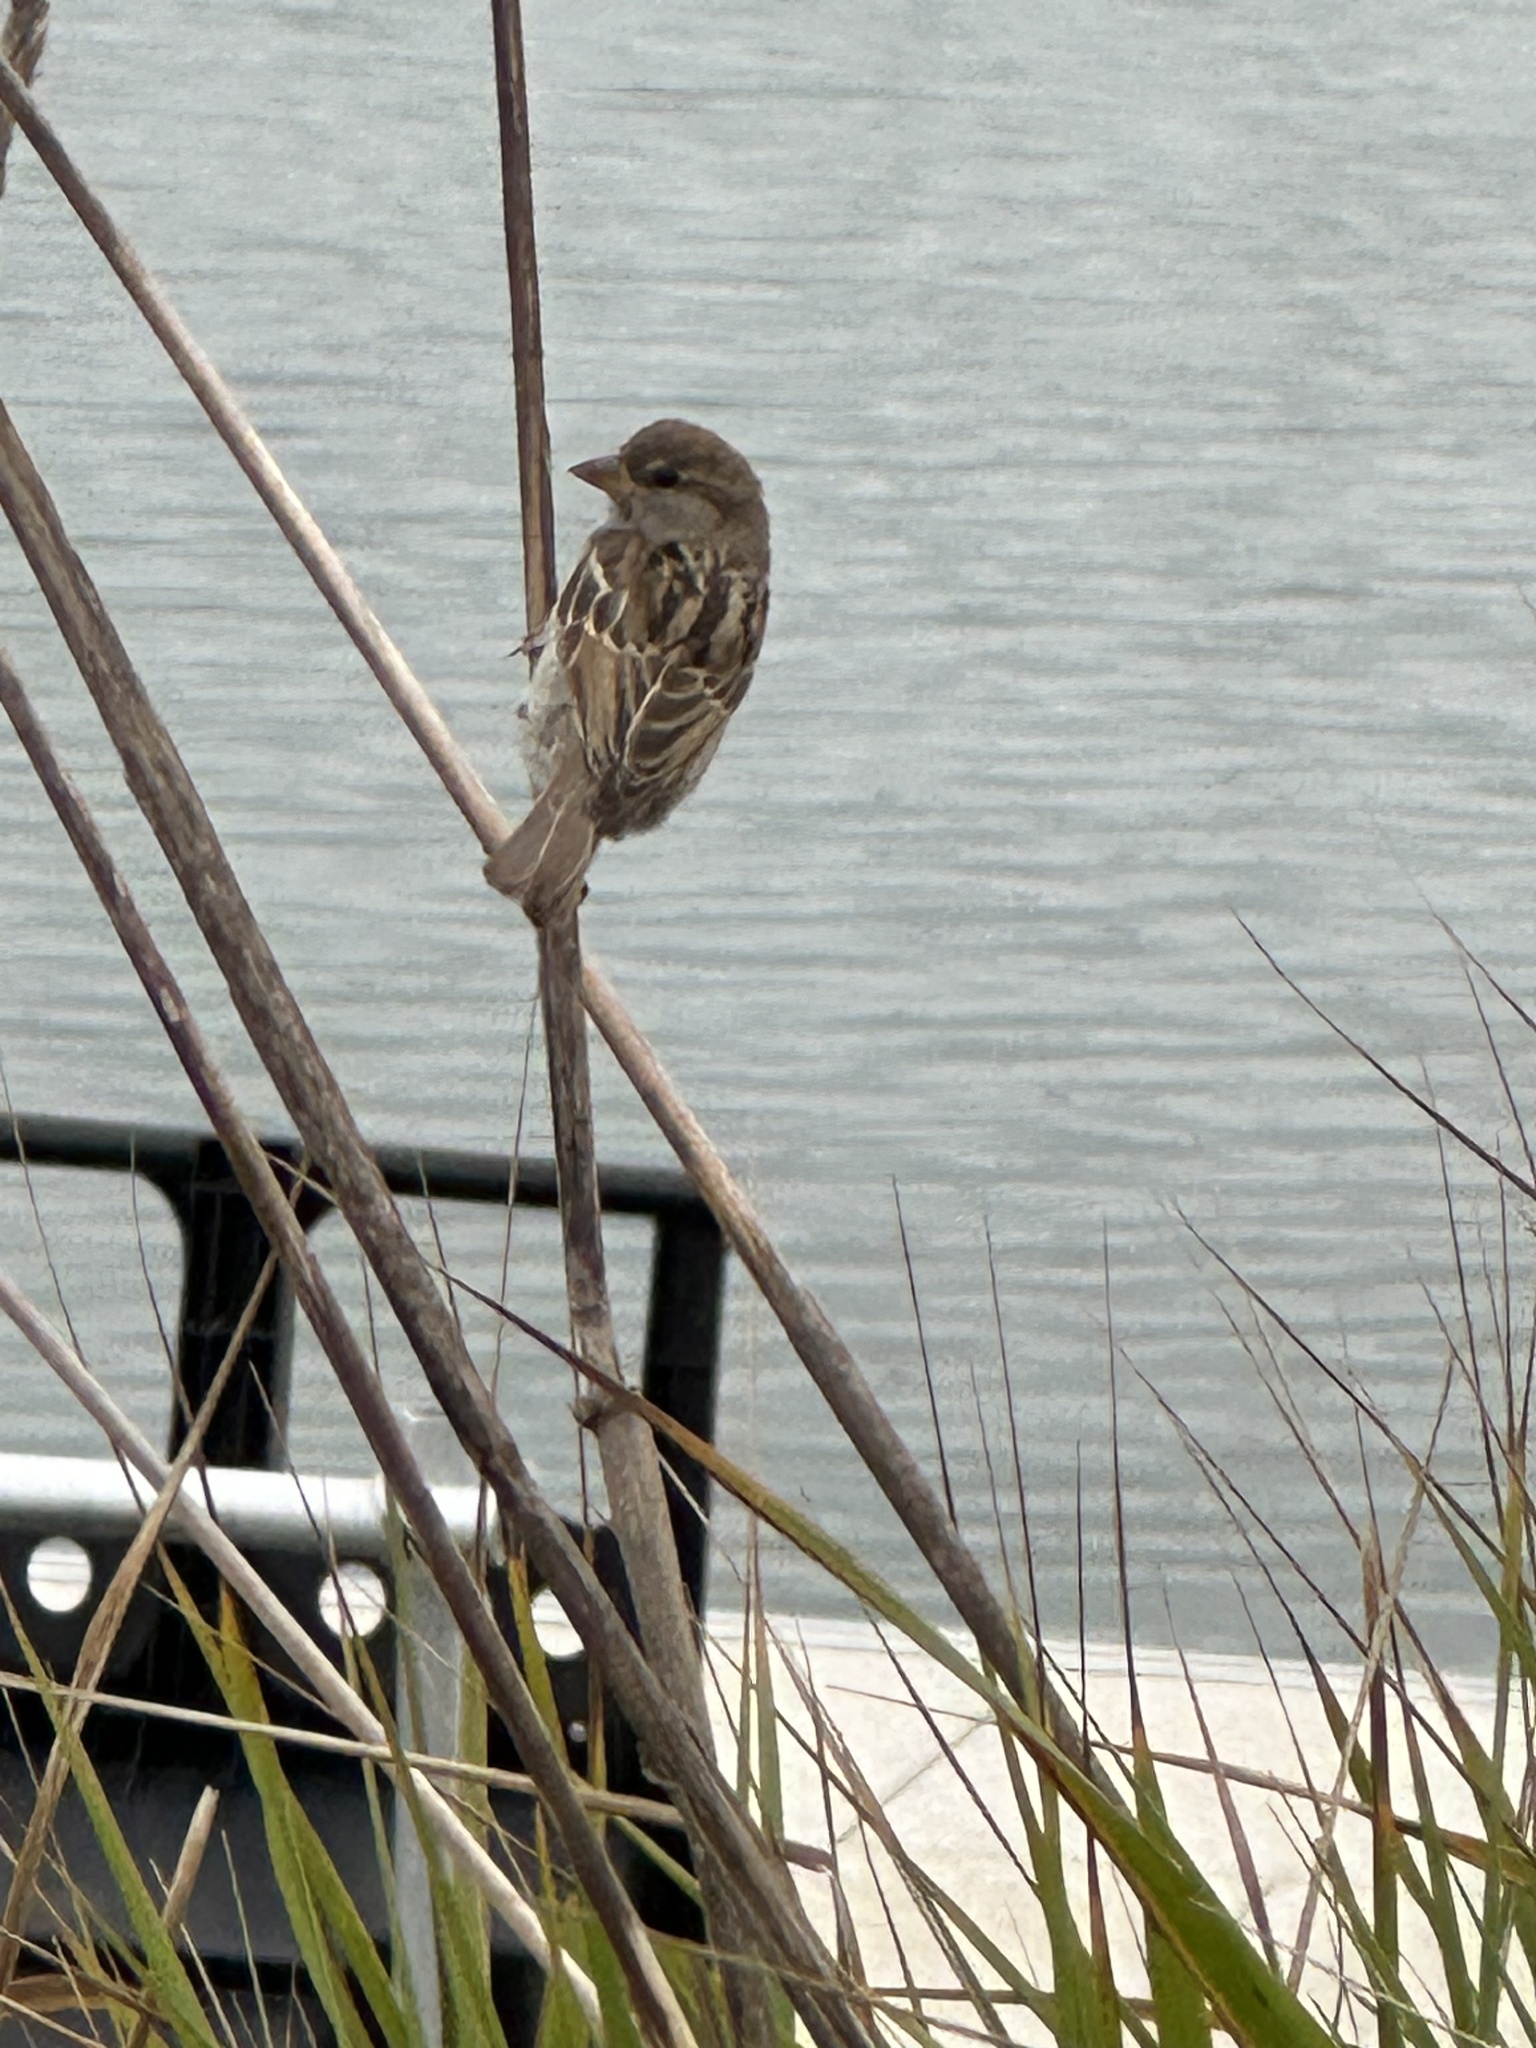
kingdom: Animalia
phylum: Chordata
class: Aves
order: Passeriformes
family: Passeridae
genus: Passer
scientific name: Passer domesticus
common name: House sparrow
